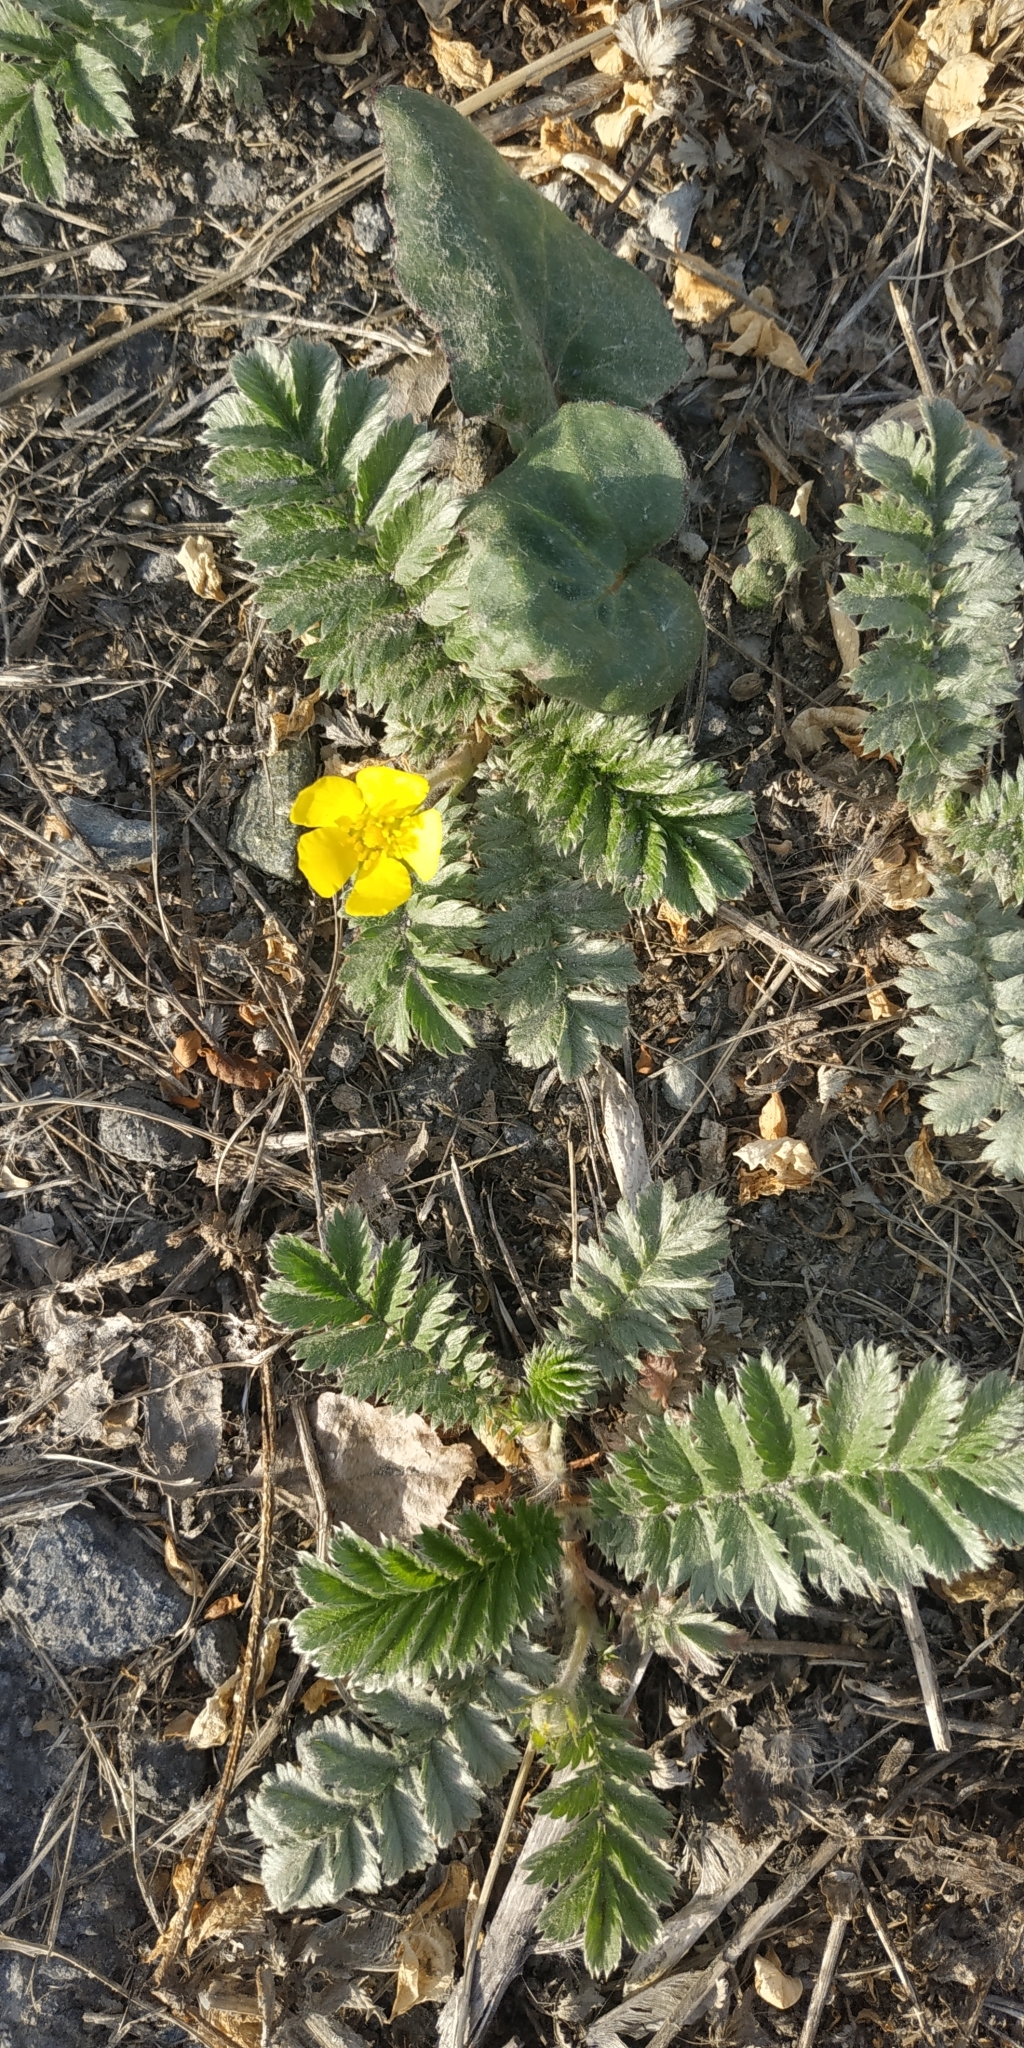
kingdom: Plantae
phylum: Tracheophyta
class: Magnoliopsida
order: Rosales
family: Rosaceae
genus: Argentina
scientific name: Argentina anserina
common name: Common silverweed
